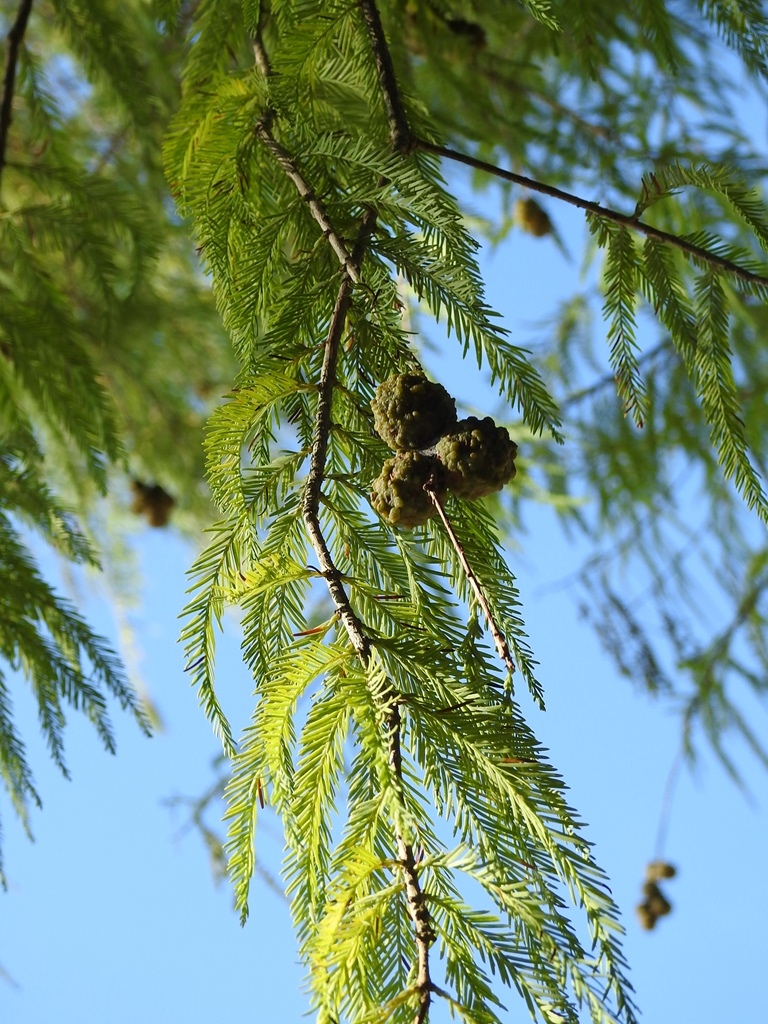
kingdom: Plantae
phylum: Tracheophyta
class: Pinopsida
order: Pinales
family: Cupressaceae
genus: Taxodium
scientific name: Taxodium mucronatum
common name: Montezume bald cypress
